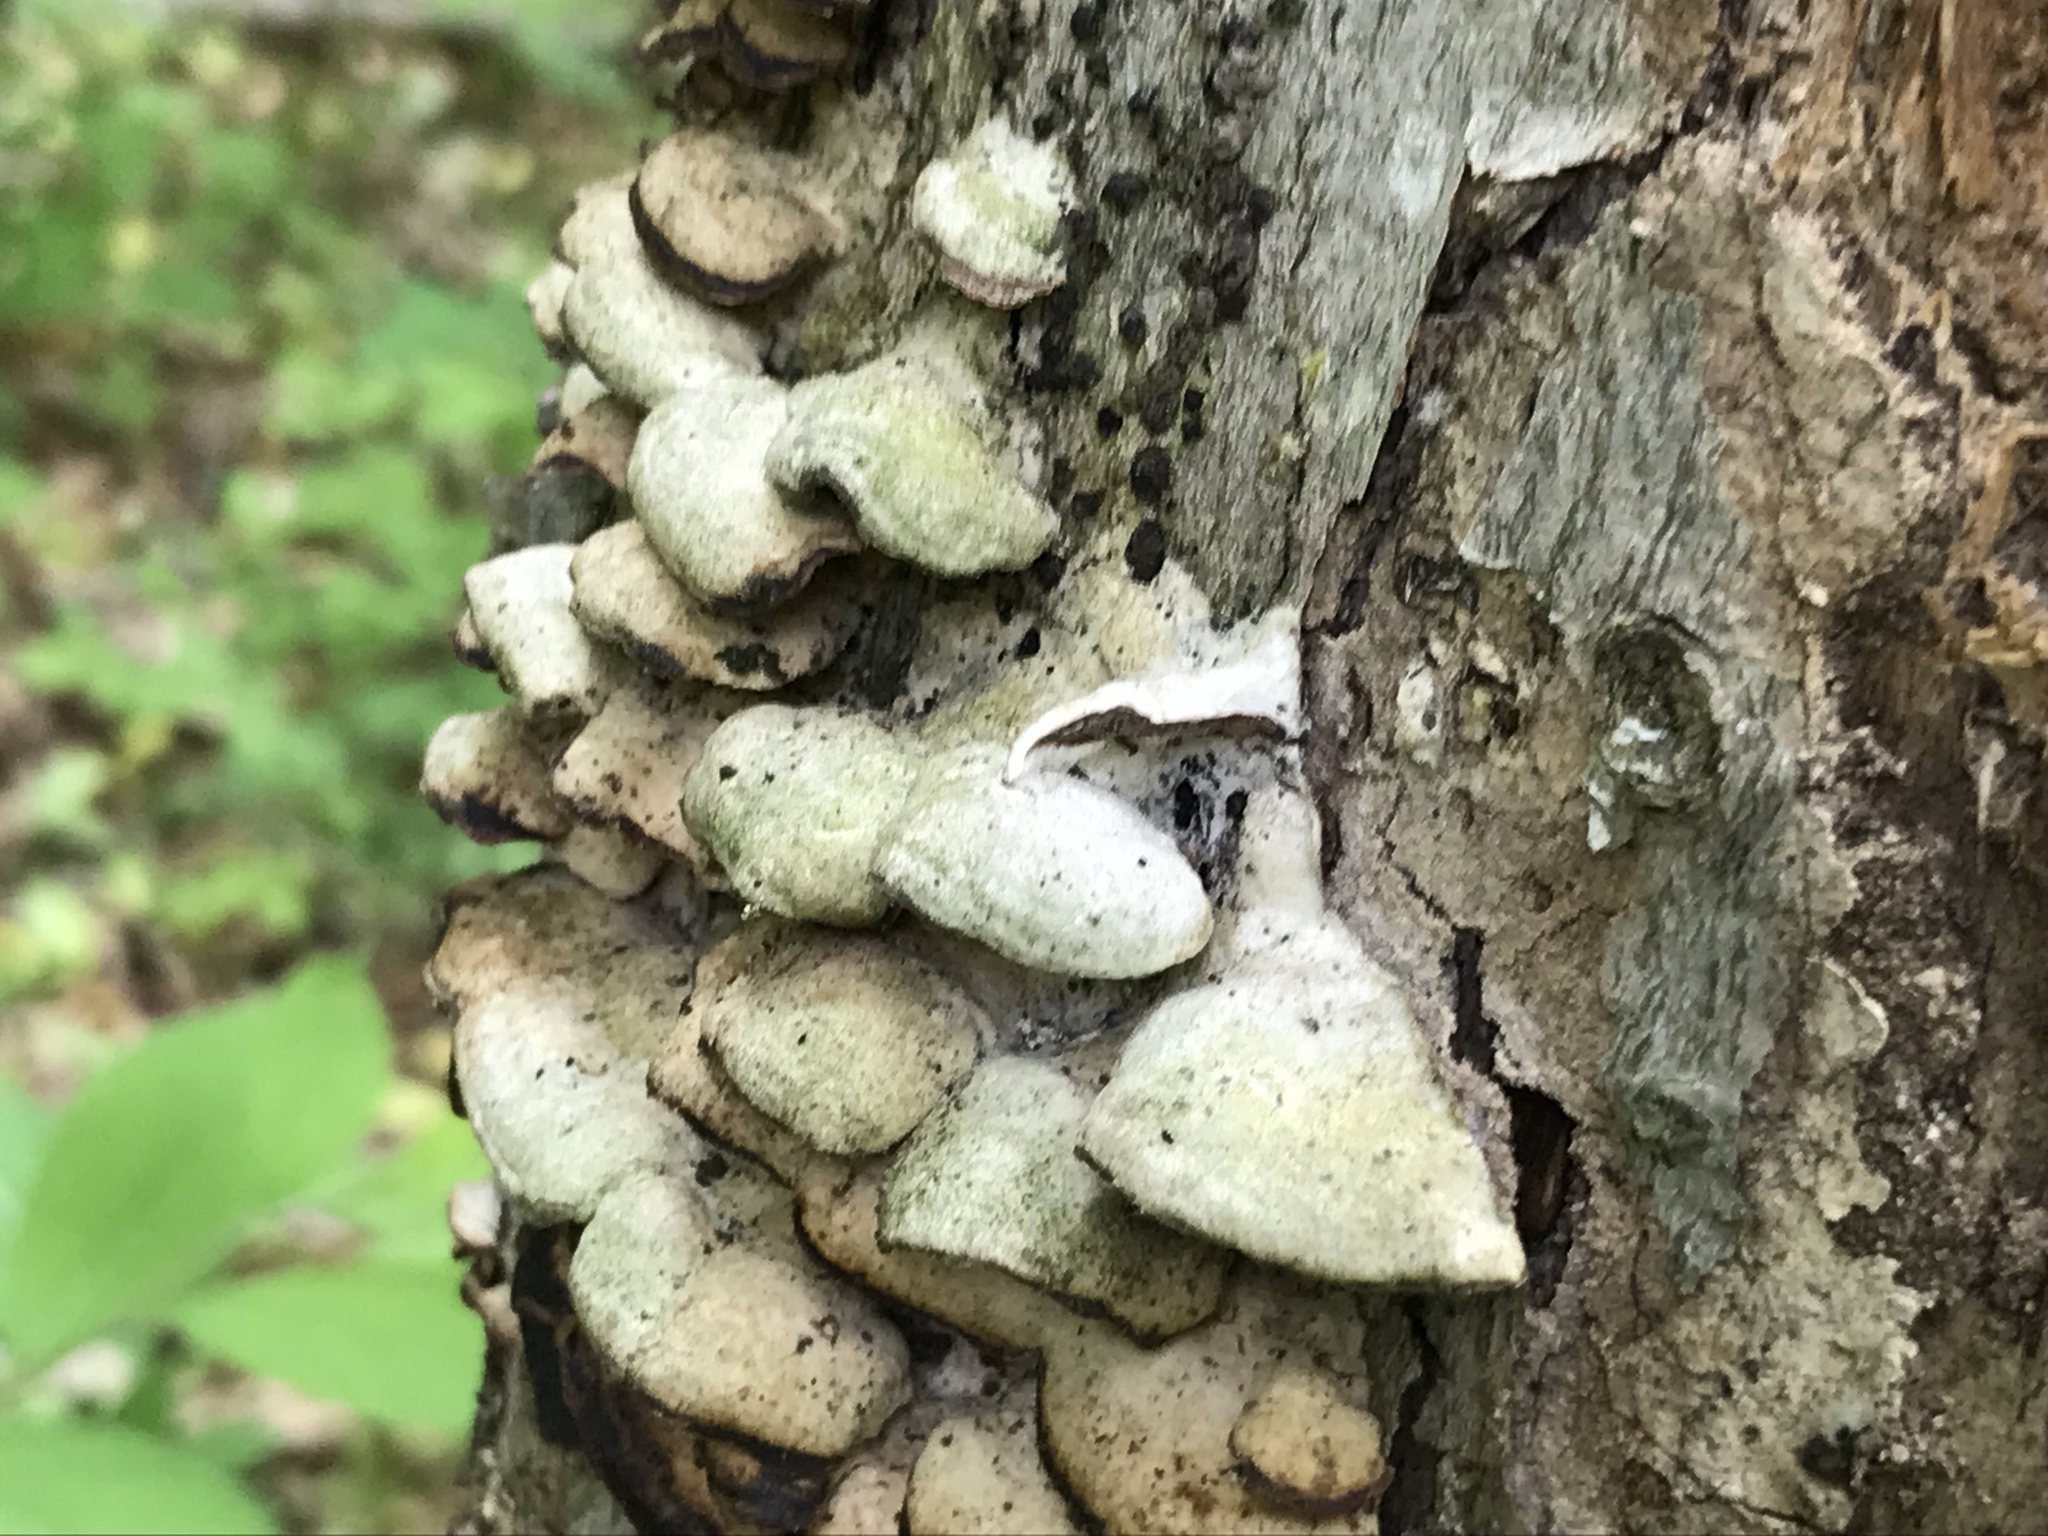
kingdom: Fungi
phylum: Basidiomycota
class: Agaricomycetes
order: Hymenochaetales
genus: Trichaptum
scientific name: Trichaptum biforme
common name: Violet-toothed polypore
